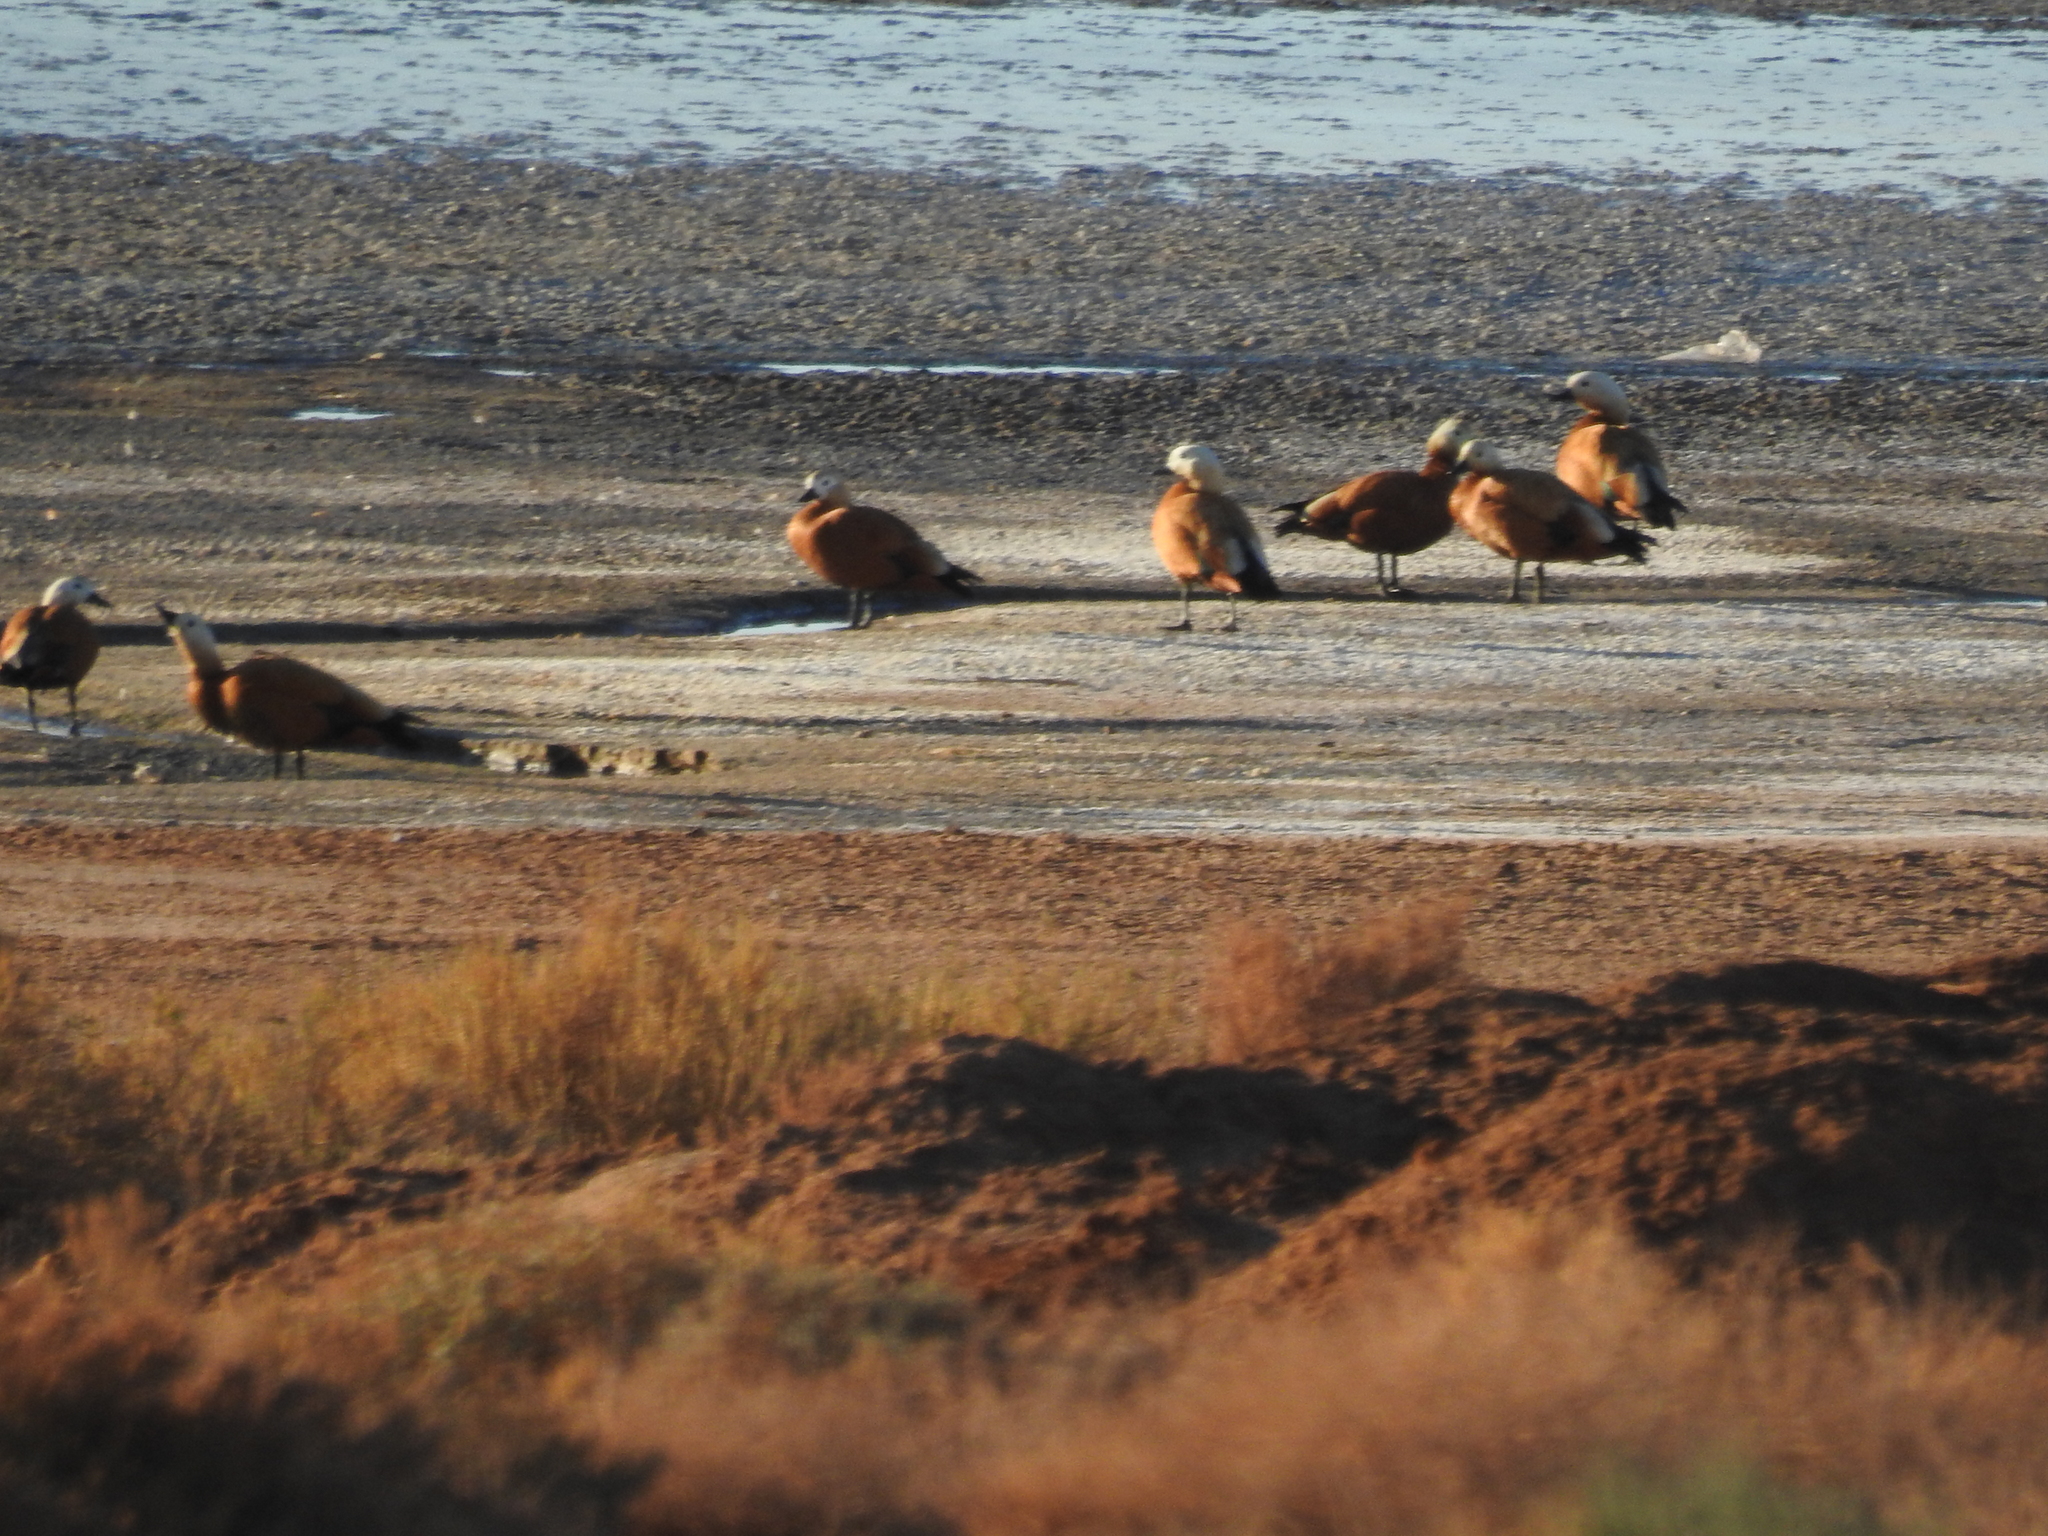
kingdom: Animalia
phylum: Chordata
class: Aves
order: Anseriformes
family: Anatidae
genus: Tadorna
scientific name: Tadorna ferruginea
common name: Ruddy shelduck
